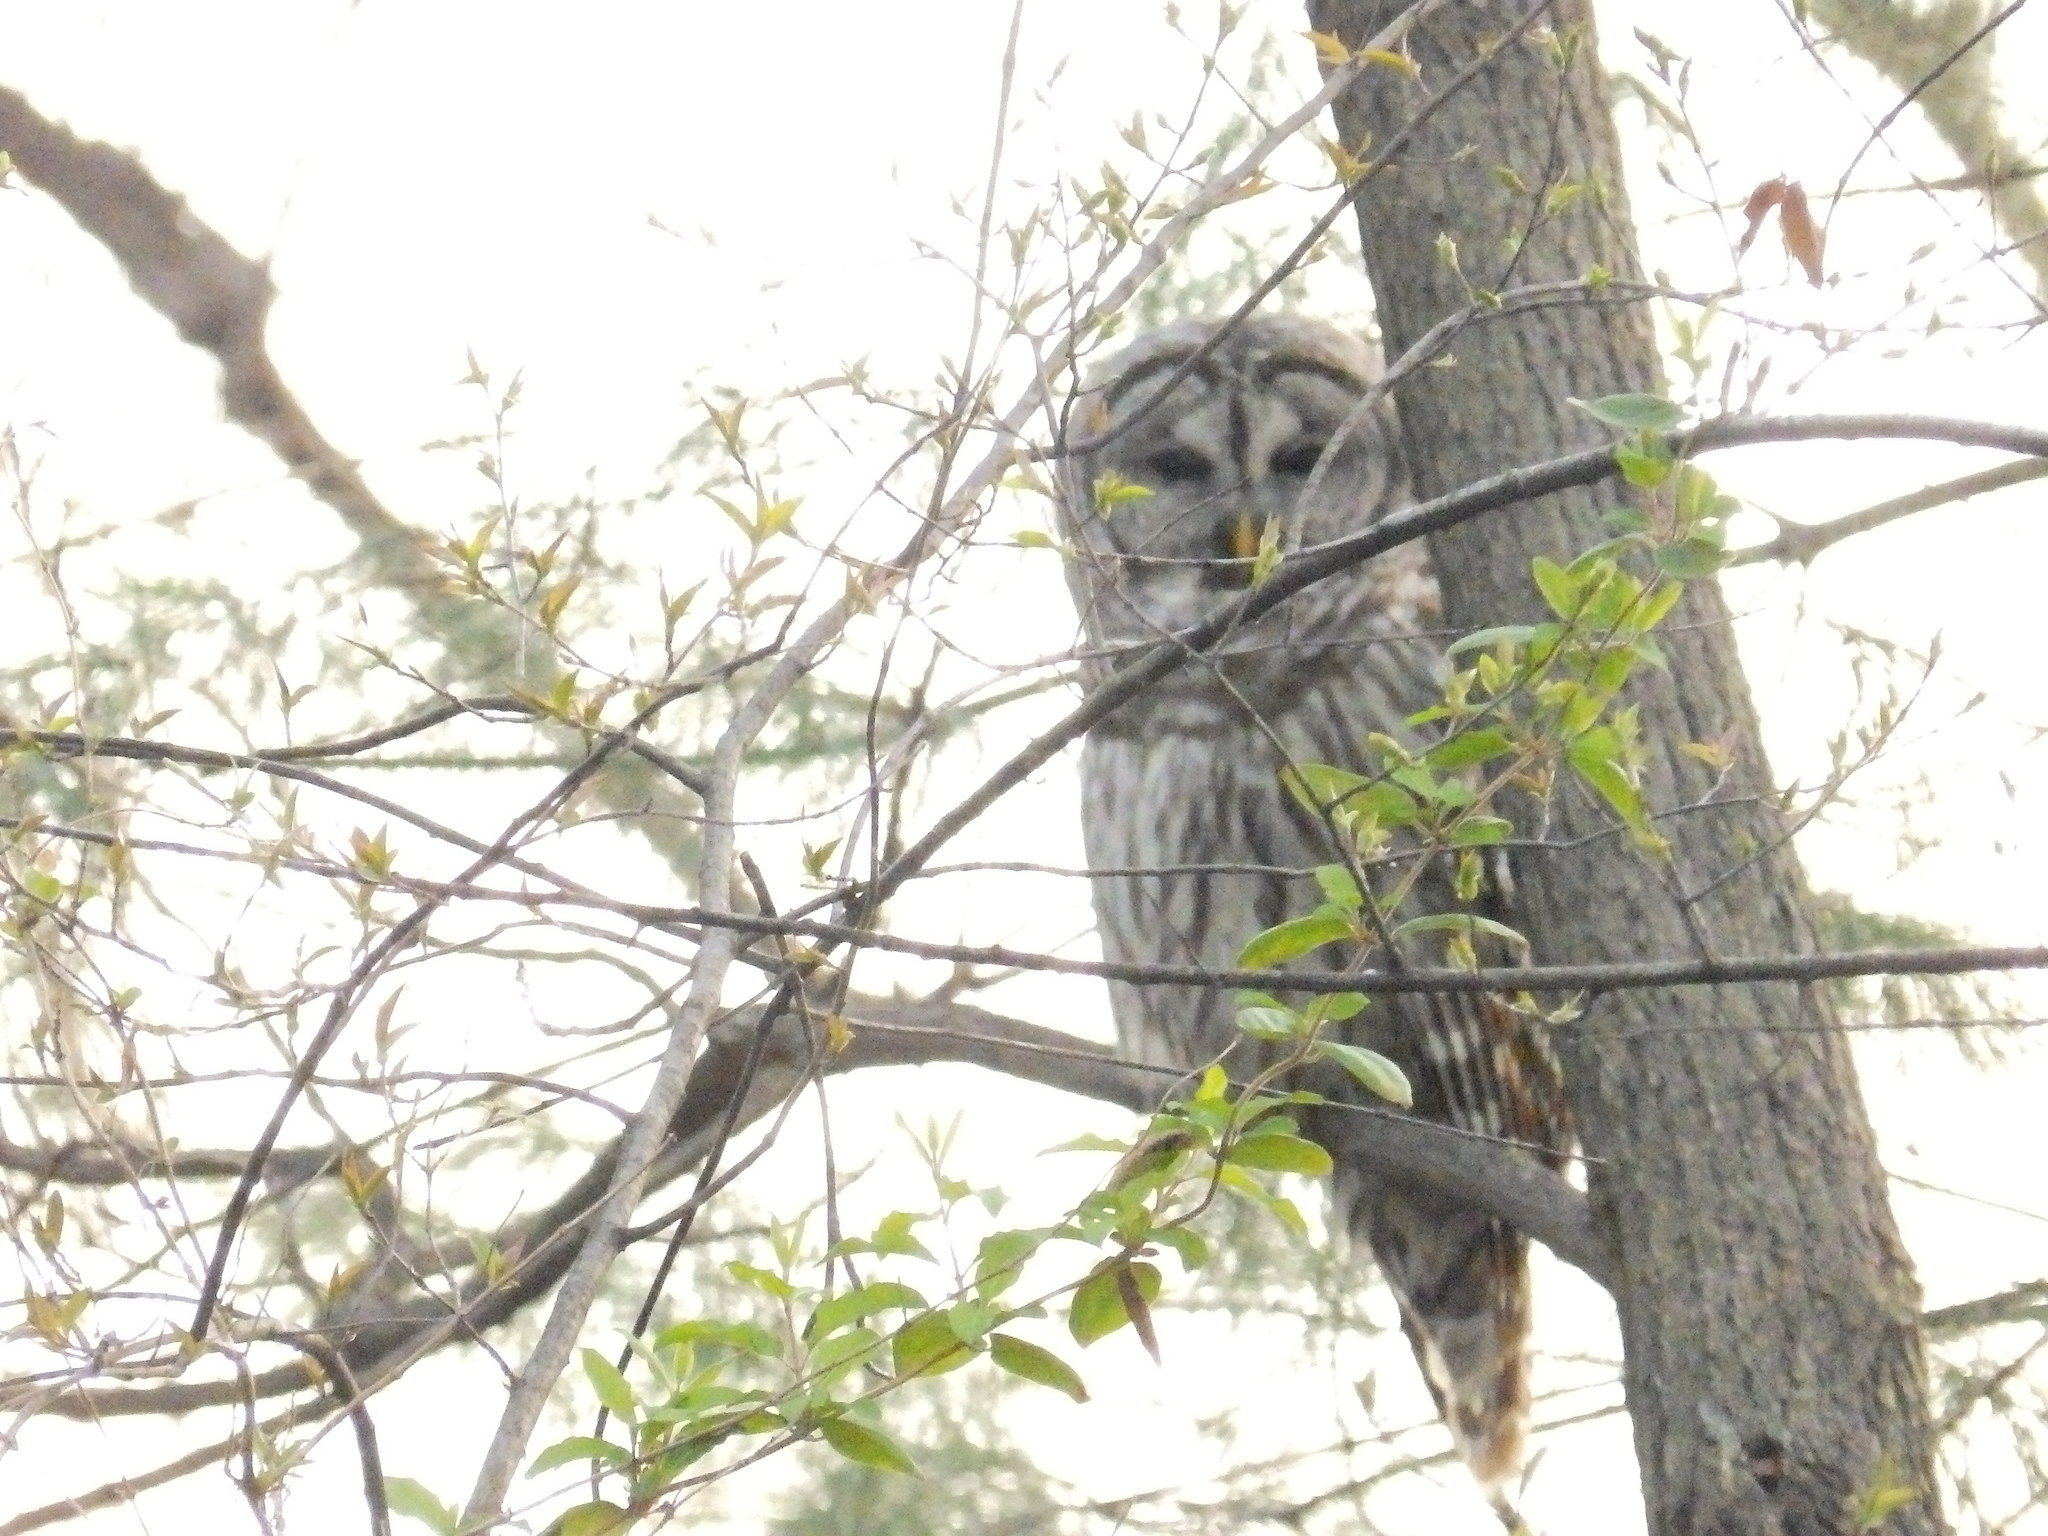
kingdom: Animalia
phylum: Chordata
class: Aves
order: Strigiformes
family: Strigidae
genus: Strix
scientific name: Strix varia
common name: Barred owl
